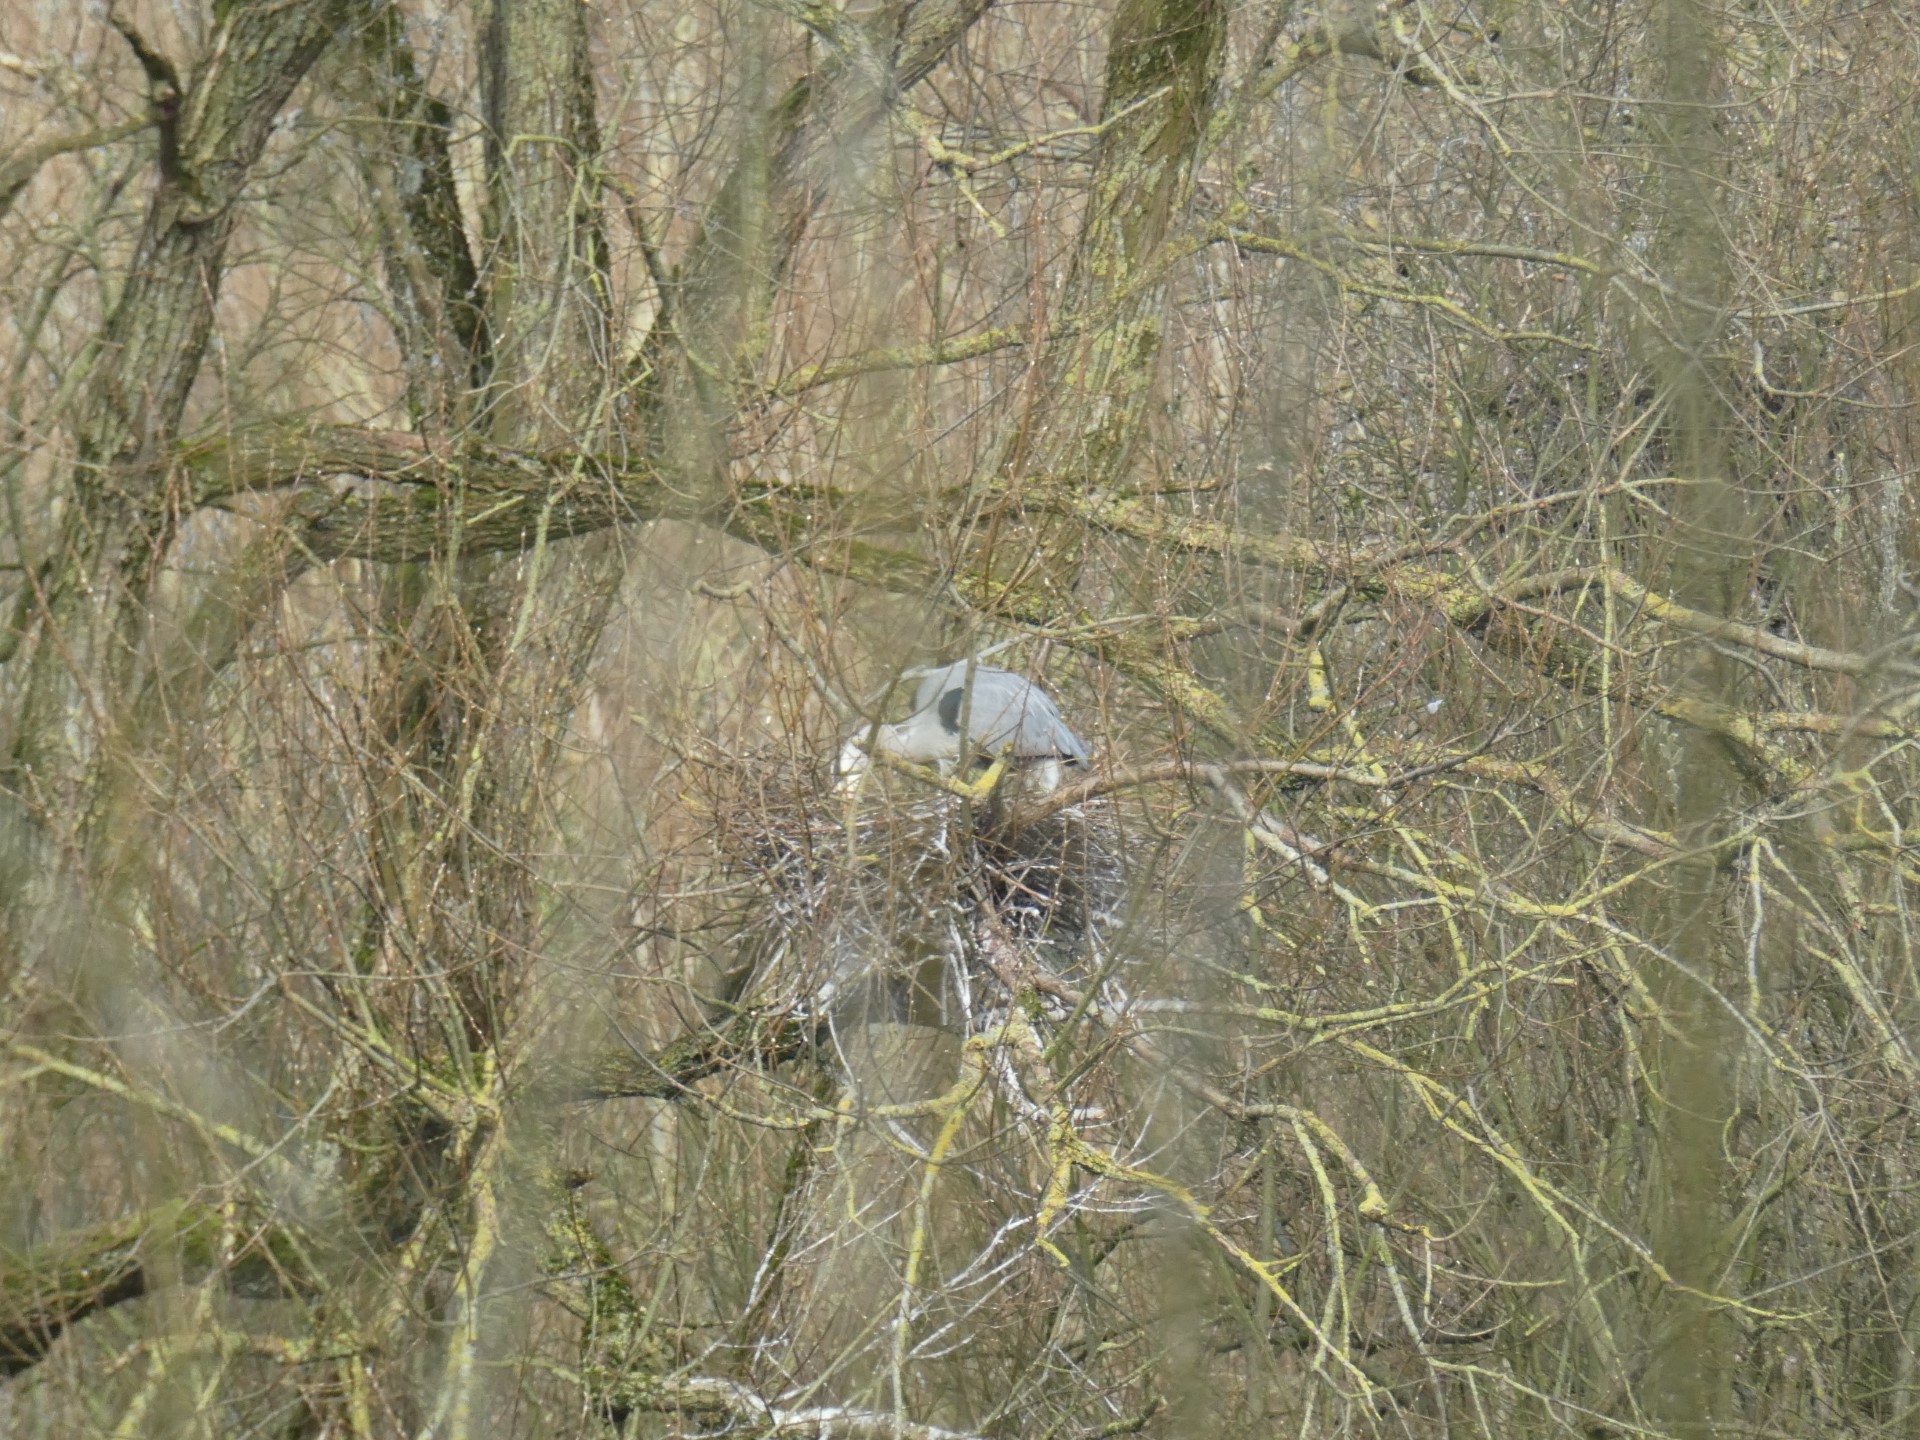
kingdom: Animalia
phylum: Chordata
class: Aves
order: Pelecaniformes
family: Ardeidae
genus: Ardea
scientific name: Ardea cinerea
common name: Grey heron
